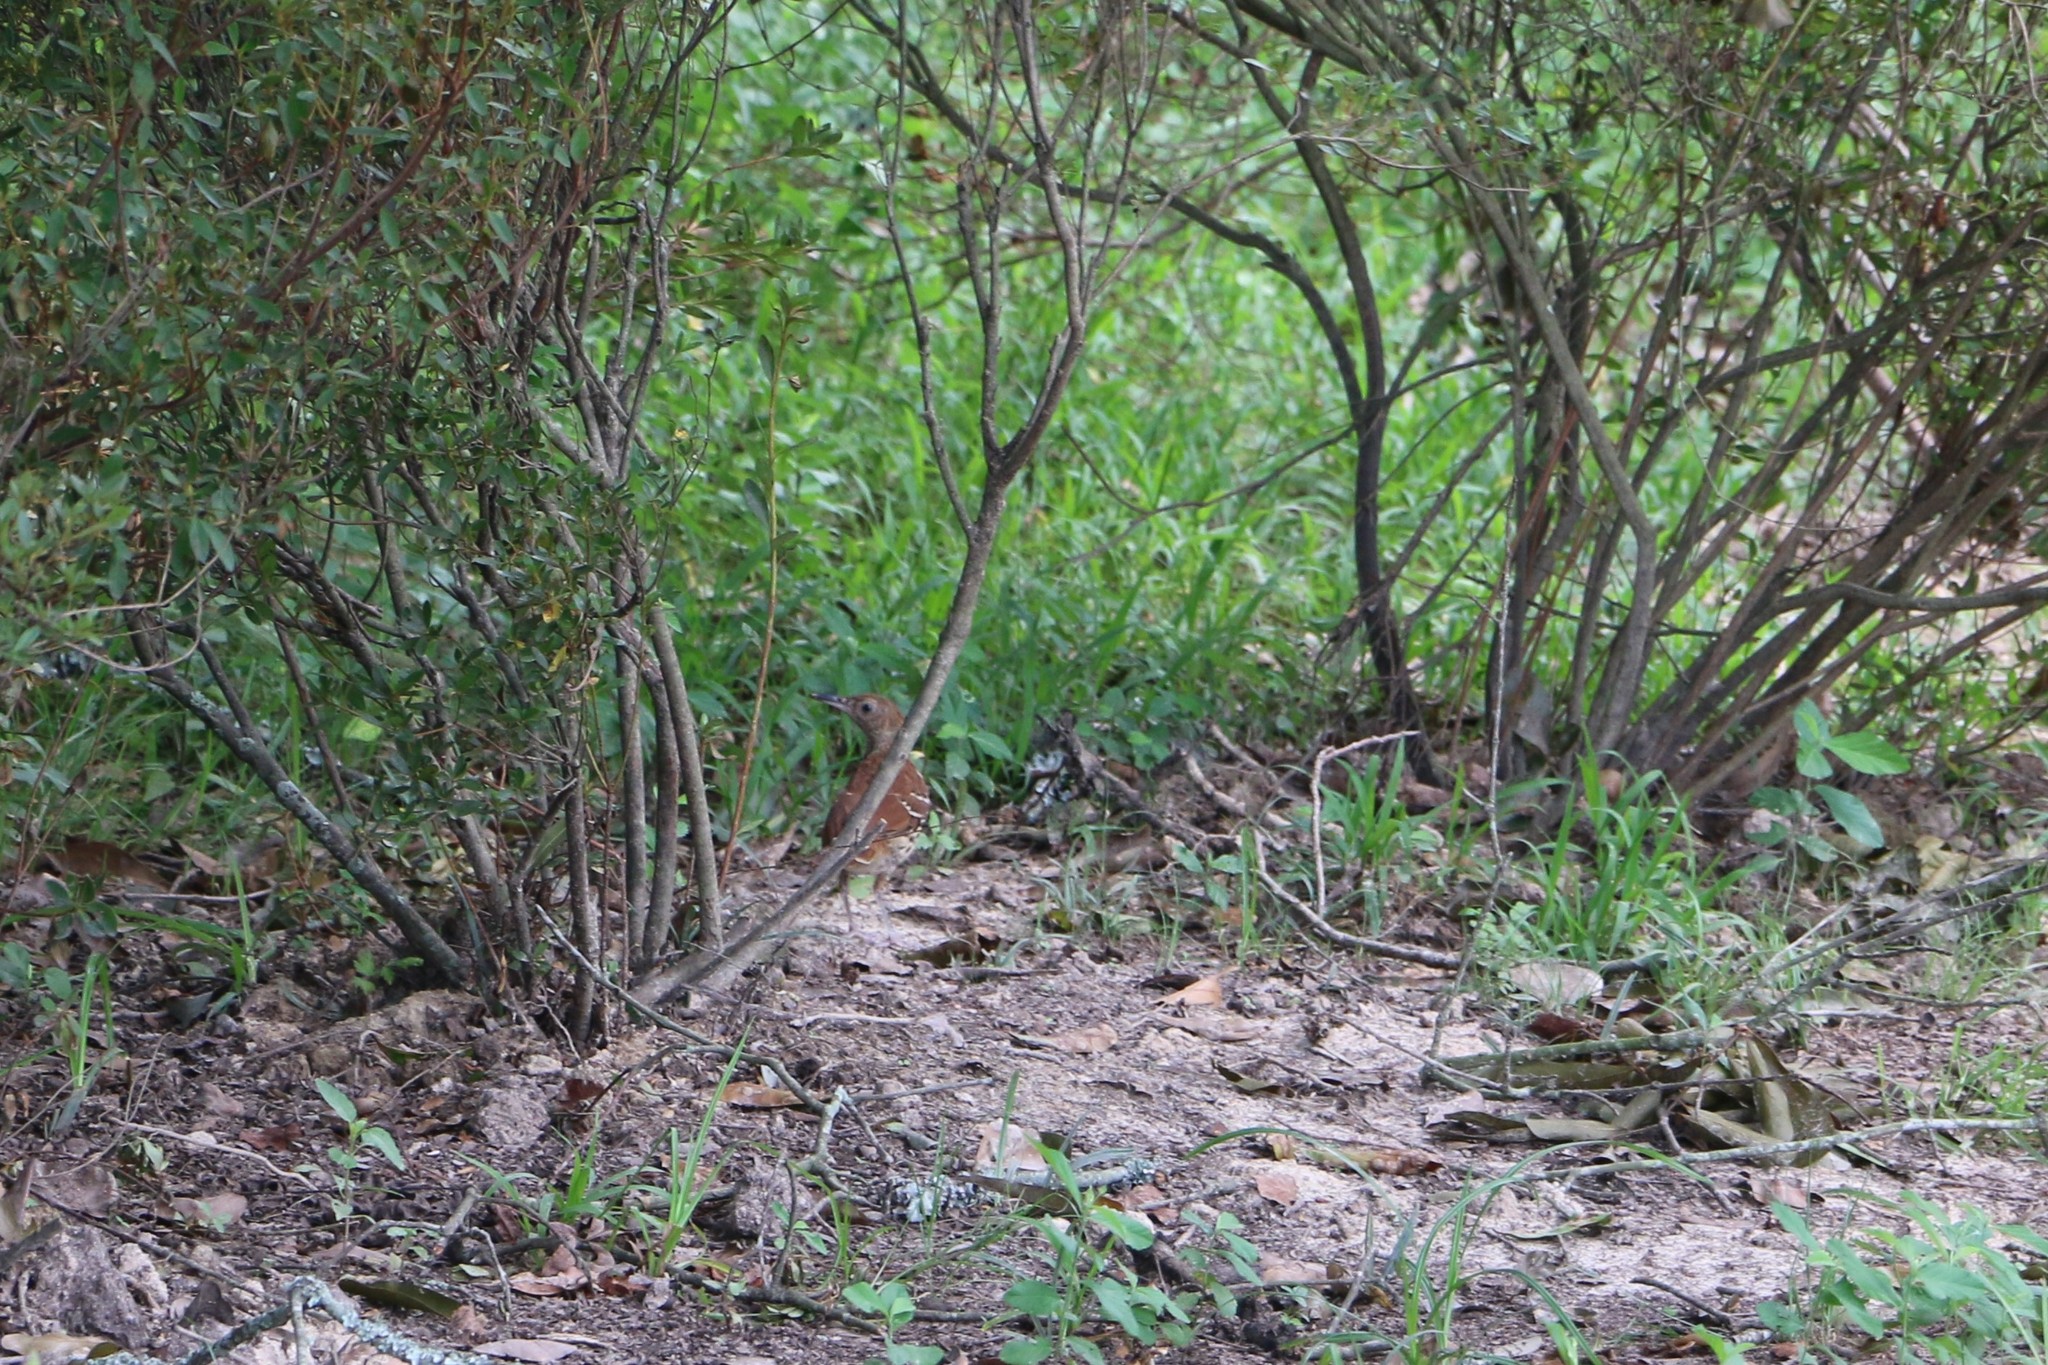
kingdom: Animalia
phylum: Chordata
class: Aves
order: Passeriformes
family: Mimidae
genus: Toxostoma
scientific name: Toxostoma rufum
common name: Brown thrasher
